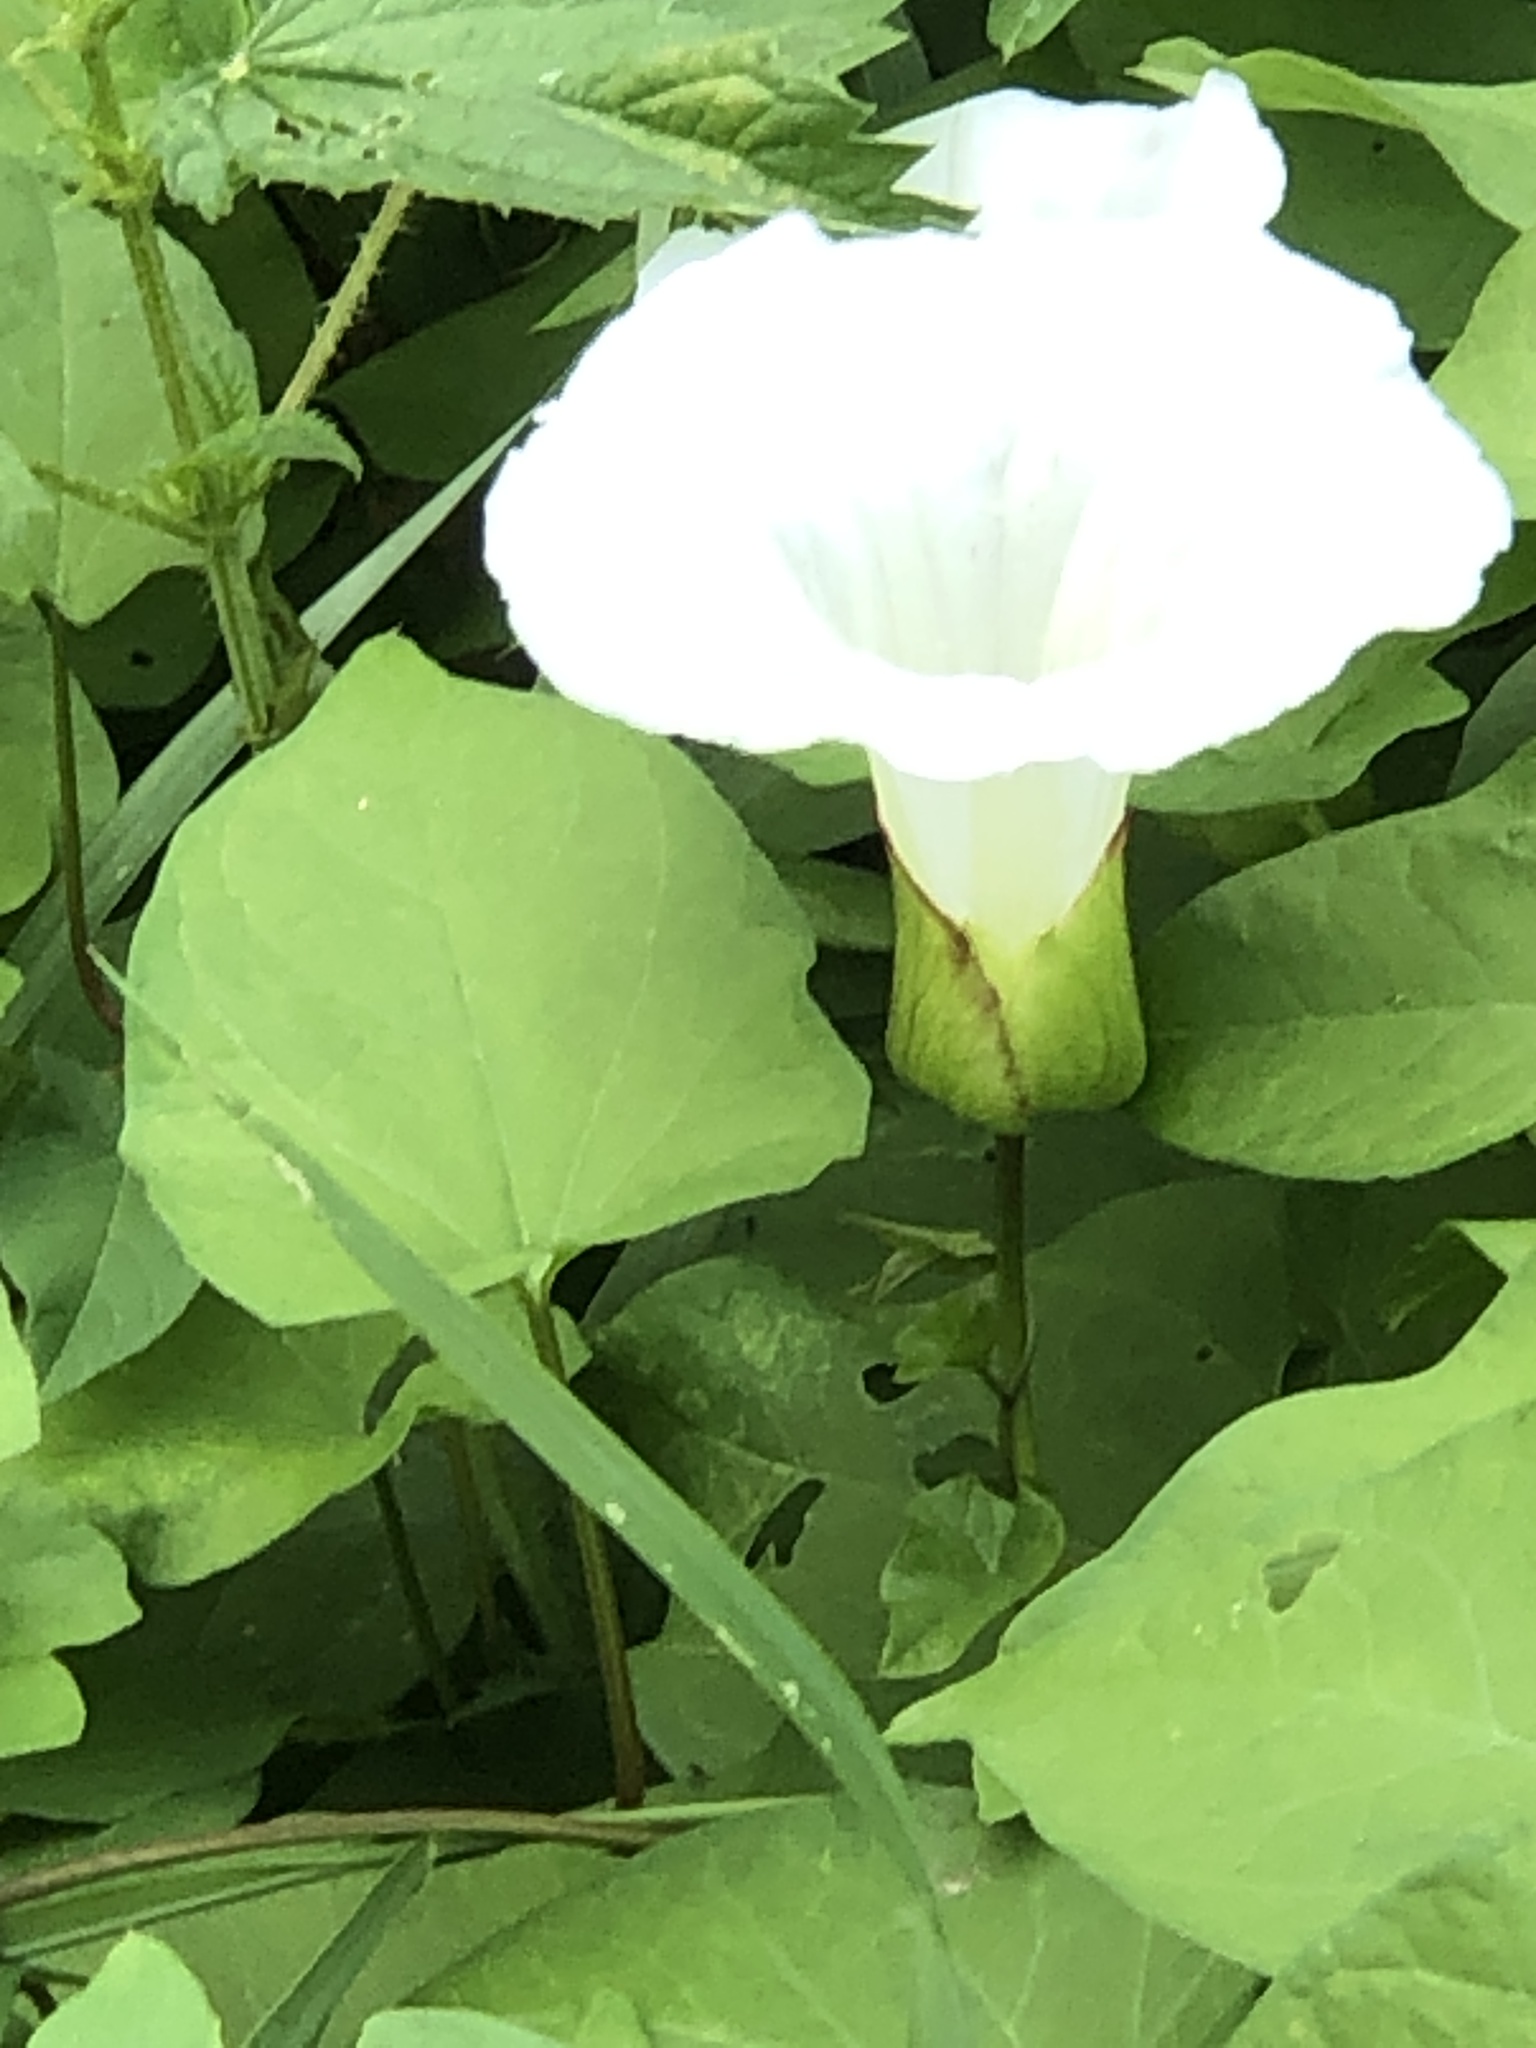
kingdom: Plantae
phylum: Tracheophyta
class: Magnoliopsida
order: Solanales
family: Convolvulaceae
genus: Calystegia
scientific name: Calystegia silvatica
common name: Large bindweed
